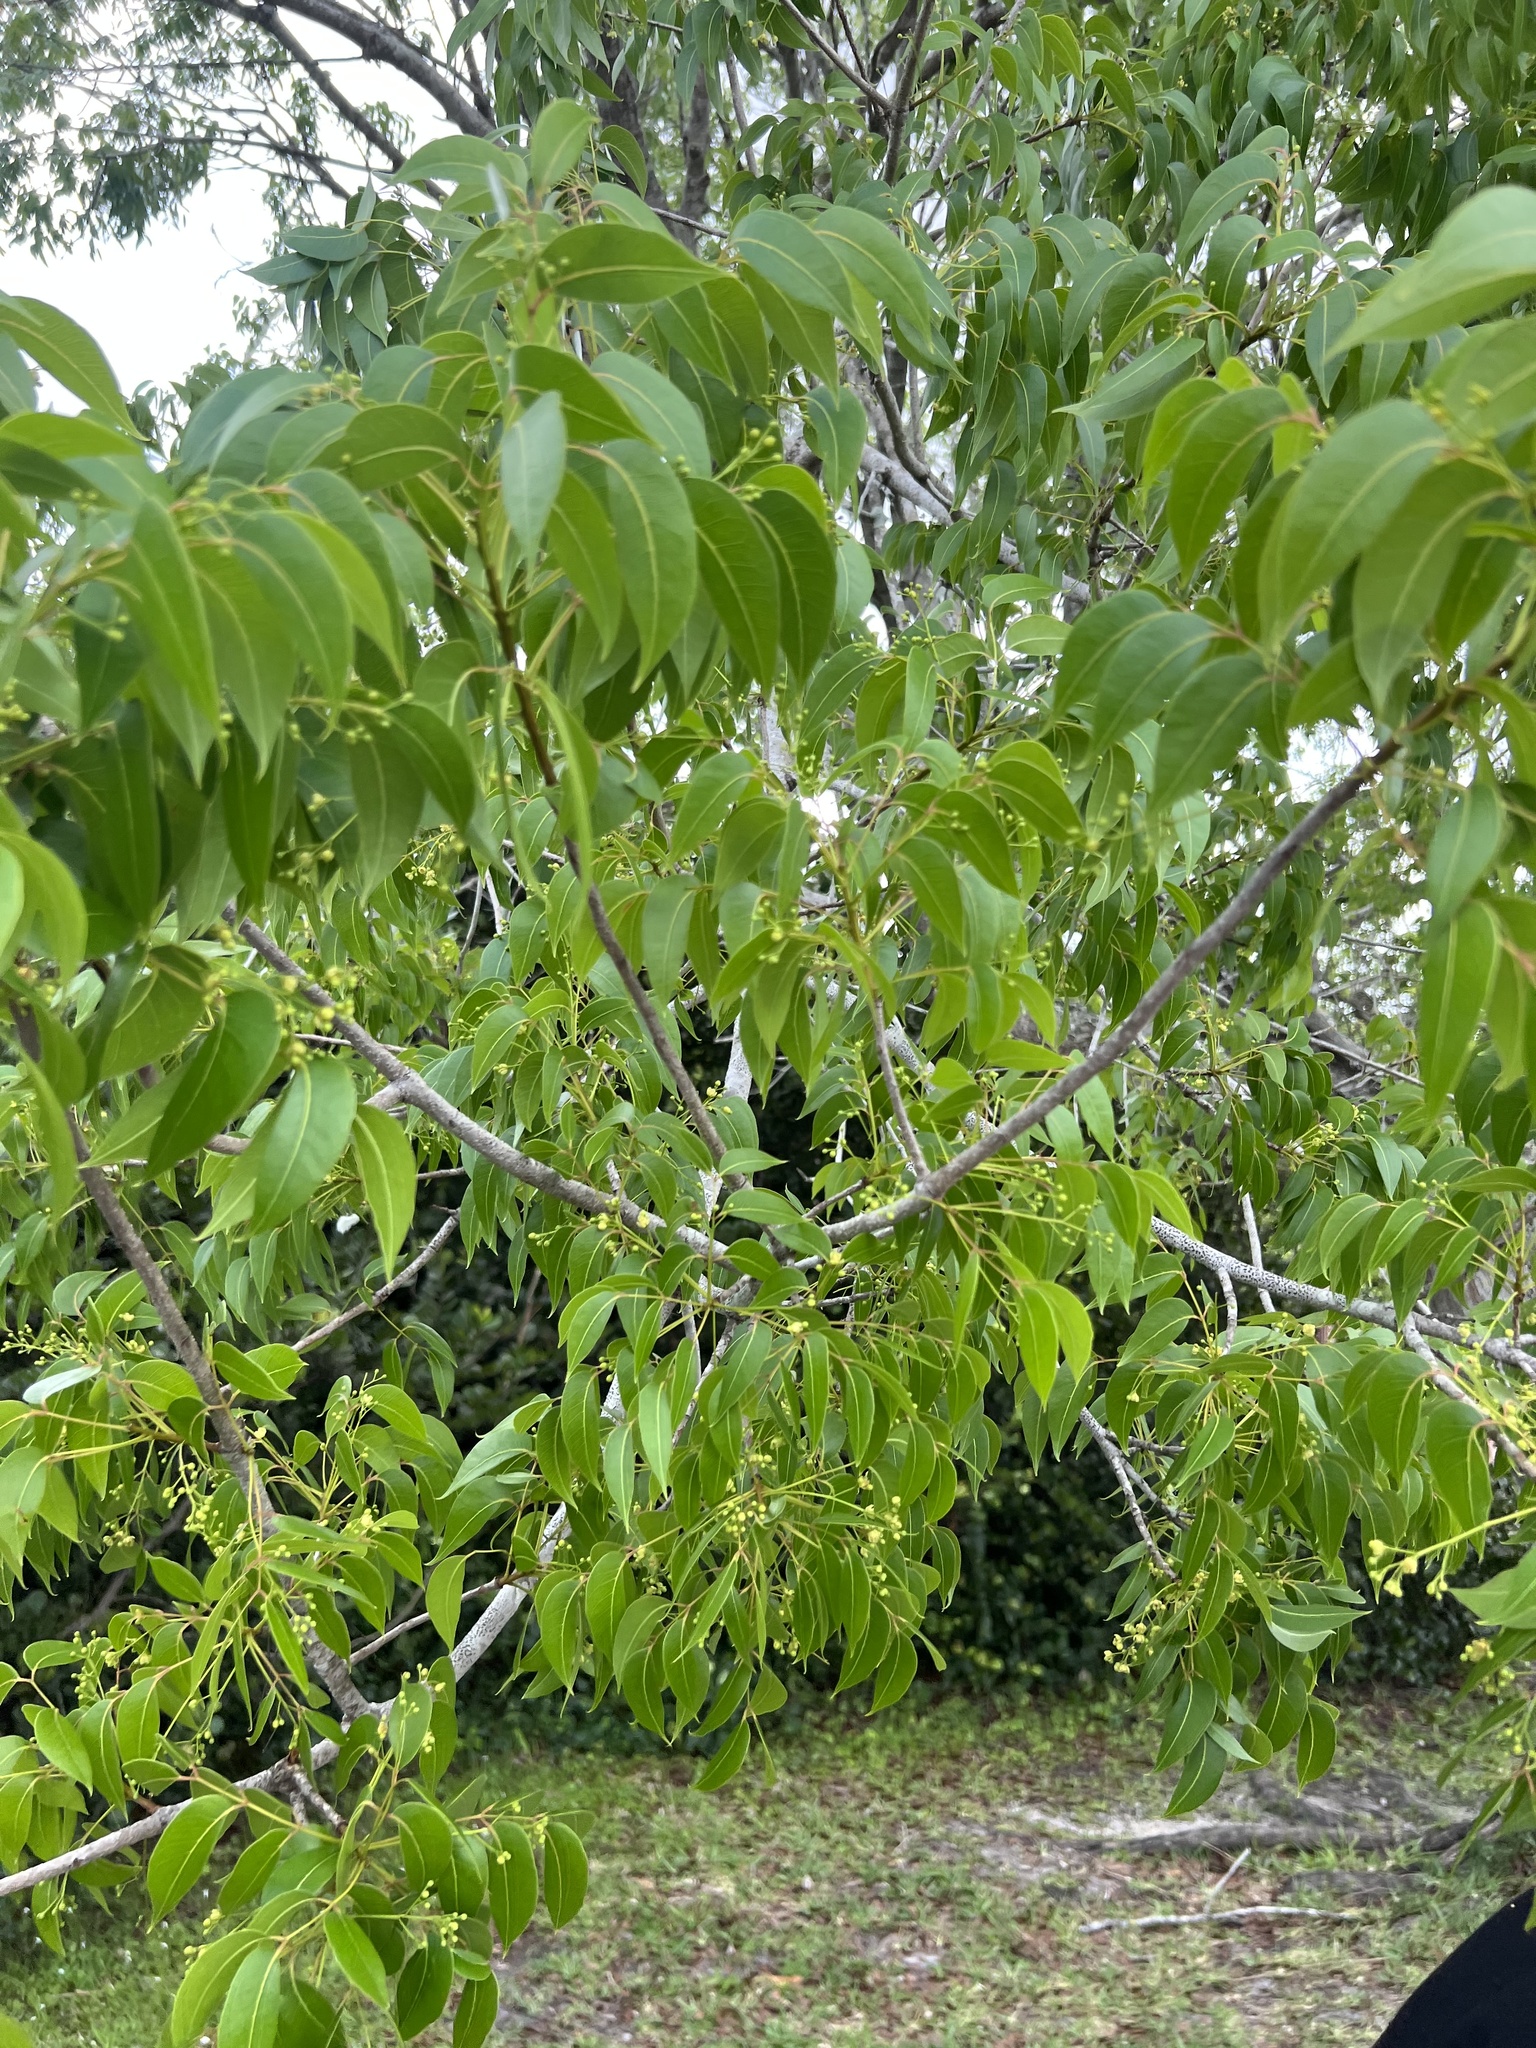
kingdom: Plantae
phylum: Tracheophyta
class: Magnoliopsida
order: Sapindales
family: Meliaceae
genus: Swietenia
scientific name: Swietenia mahagoni
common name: West indian mahogany
